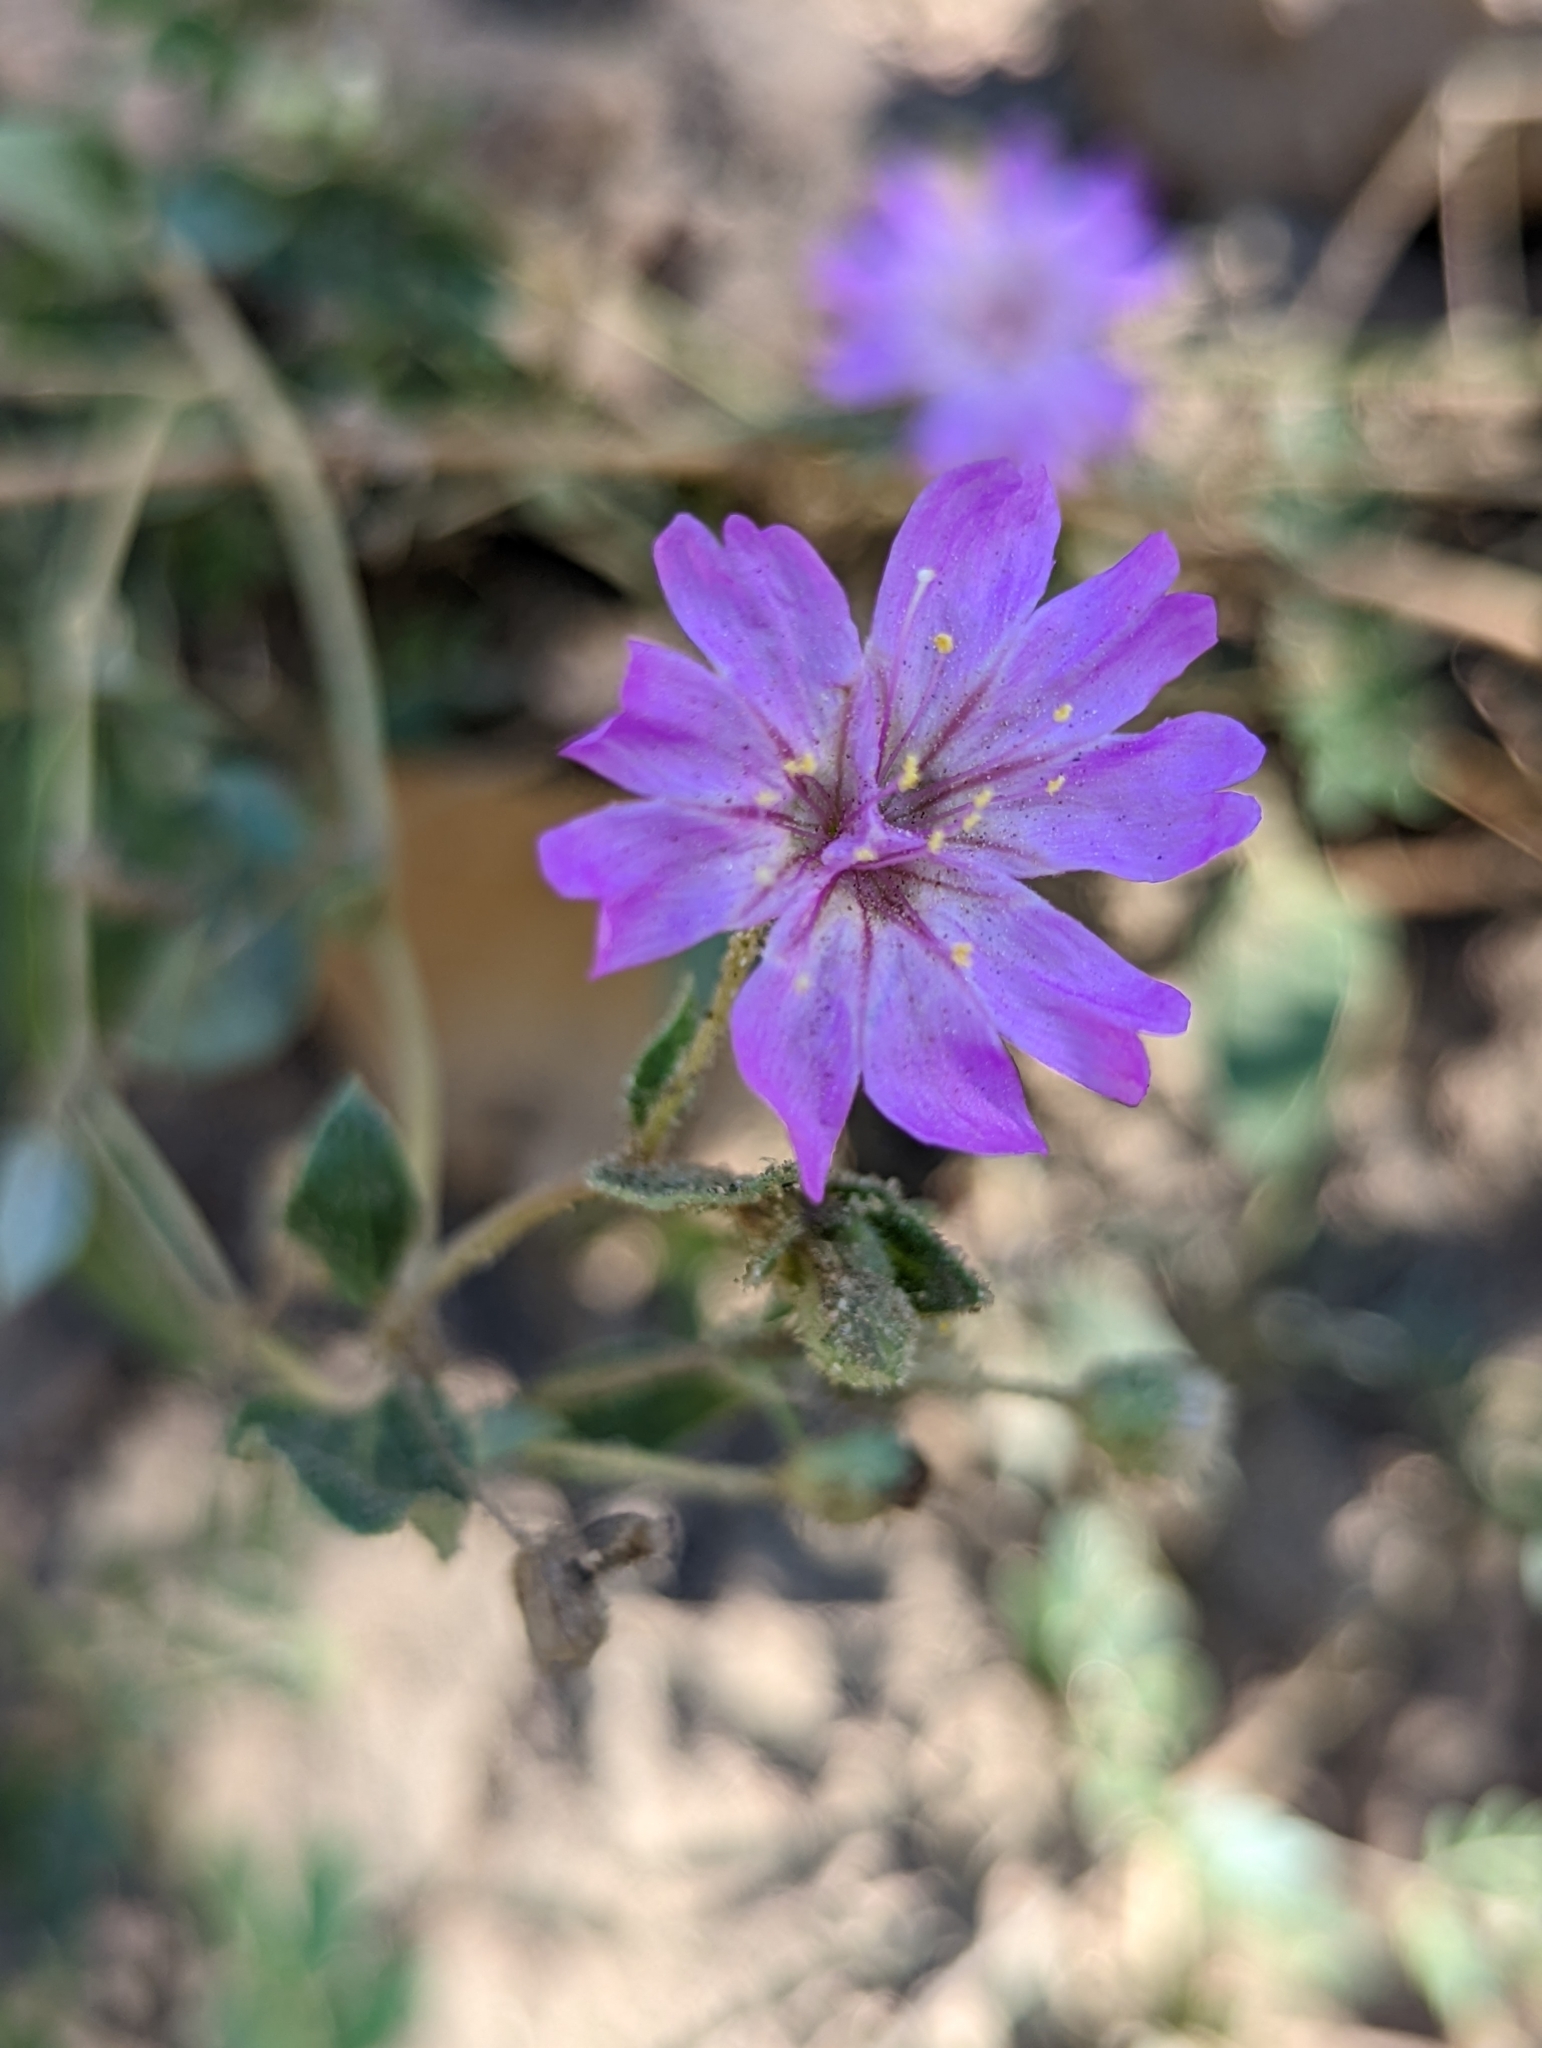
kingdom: Plantae
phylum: Tracheophyta
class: Magnoliopsida
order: Caryophyllales
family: Nyctaginaceae
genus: Allionia
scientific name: Allionia incarnata
